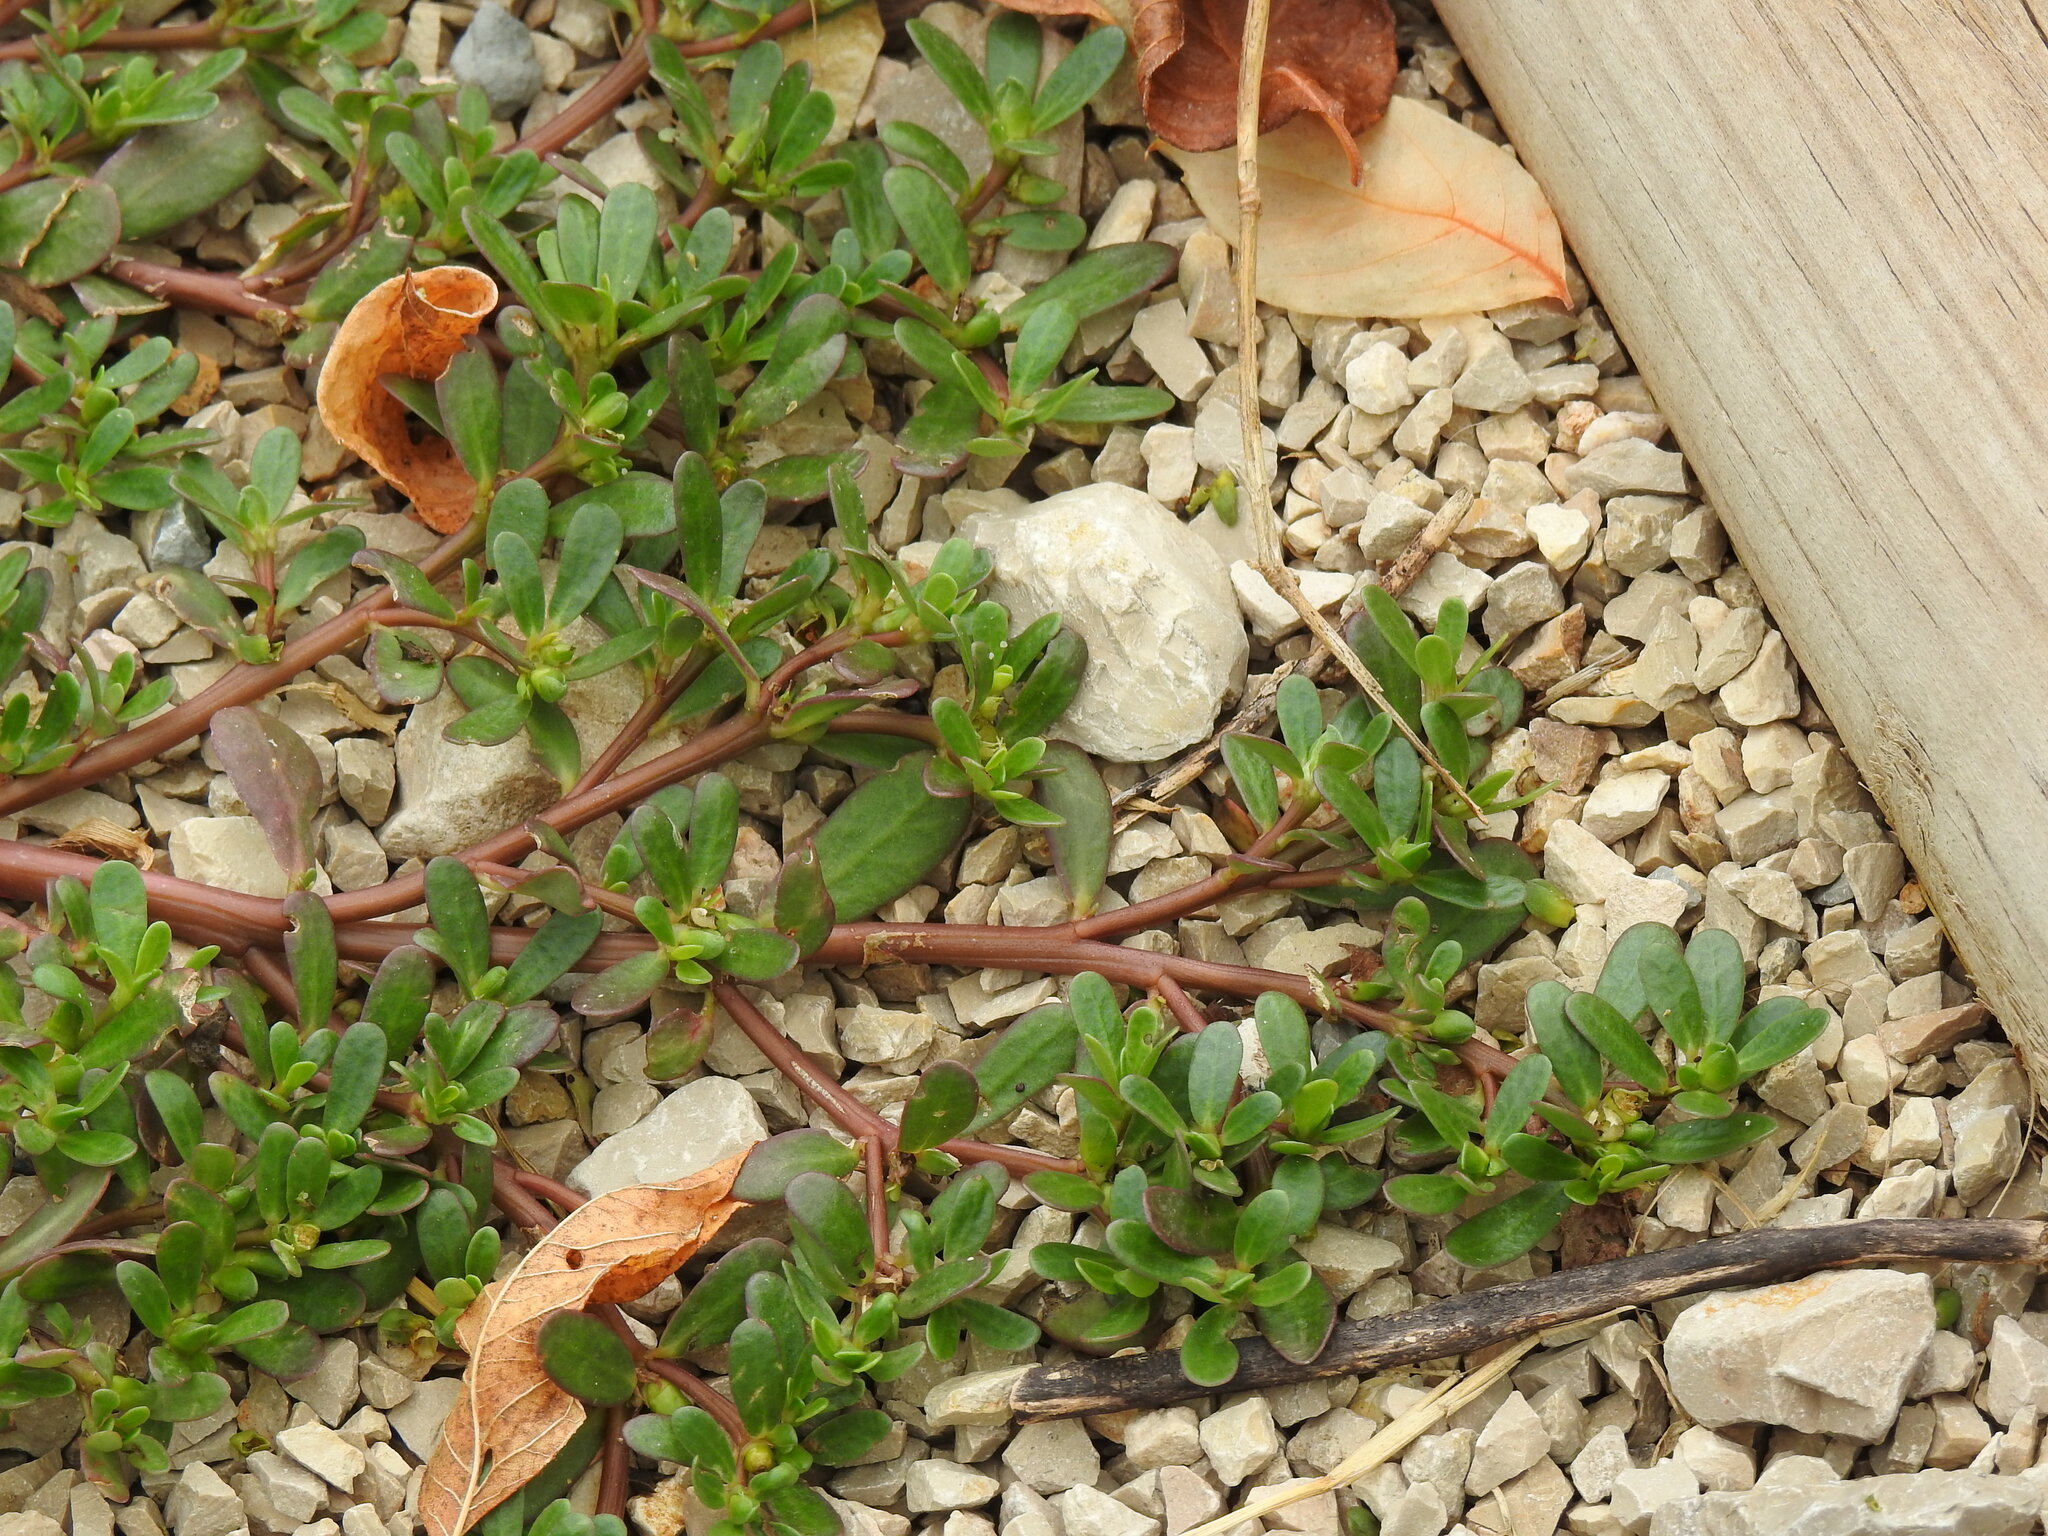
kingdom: Plantae
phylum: Tracheophyta
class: Magnoliopsida
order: Caryophyllales
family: Portulacaceae
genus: Portulaca
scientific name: Portulaca oleracea
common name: Common purslane
